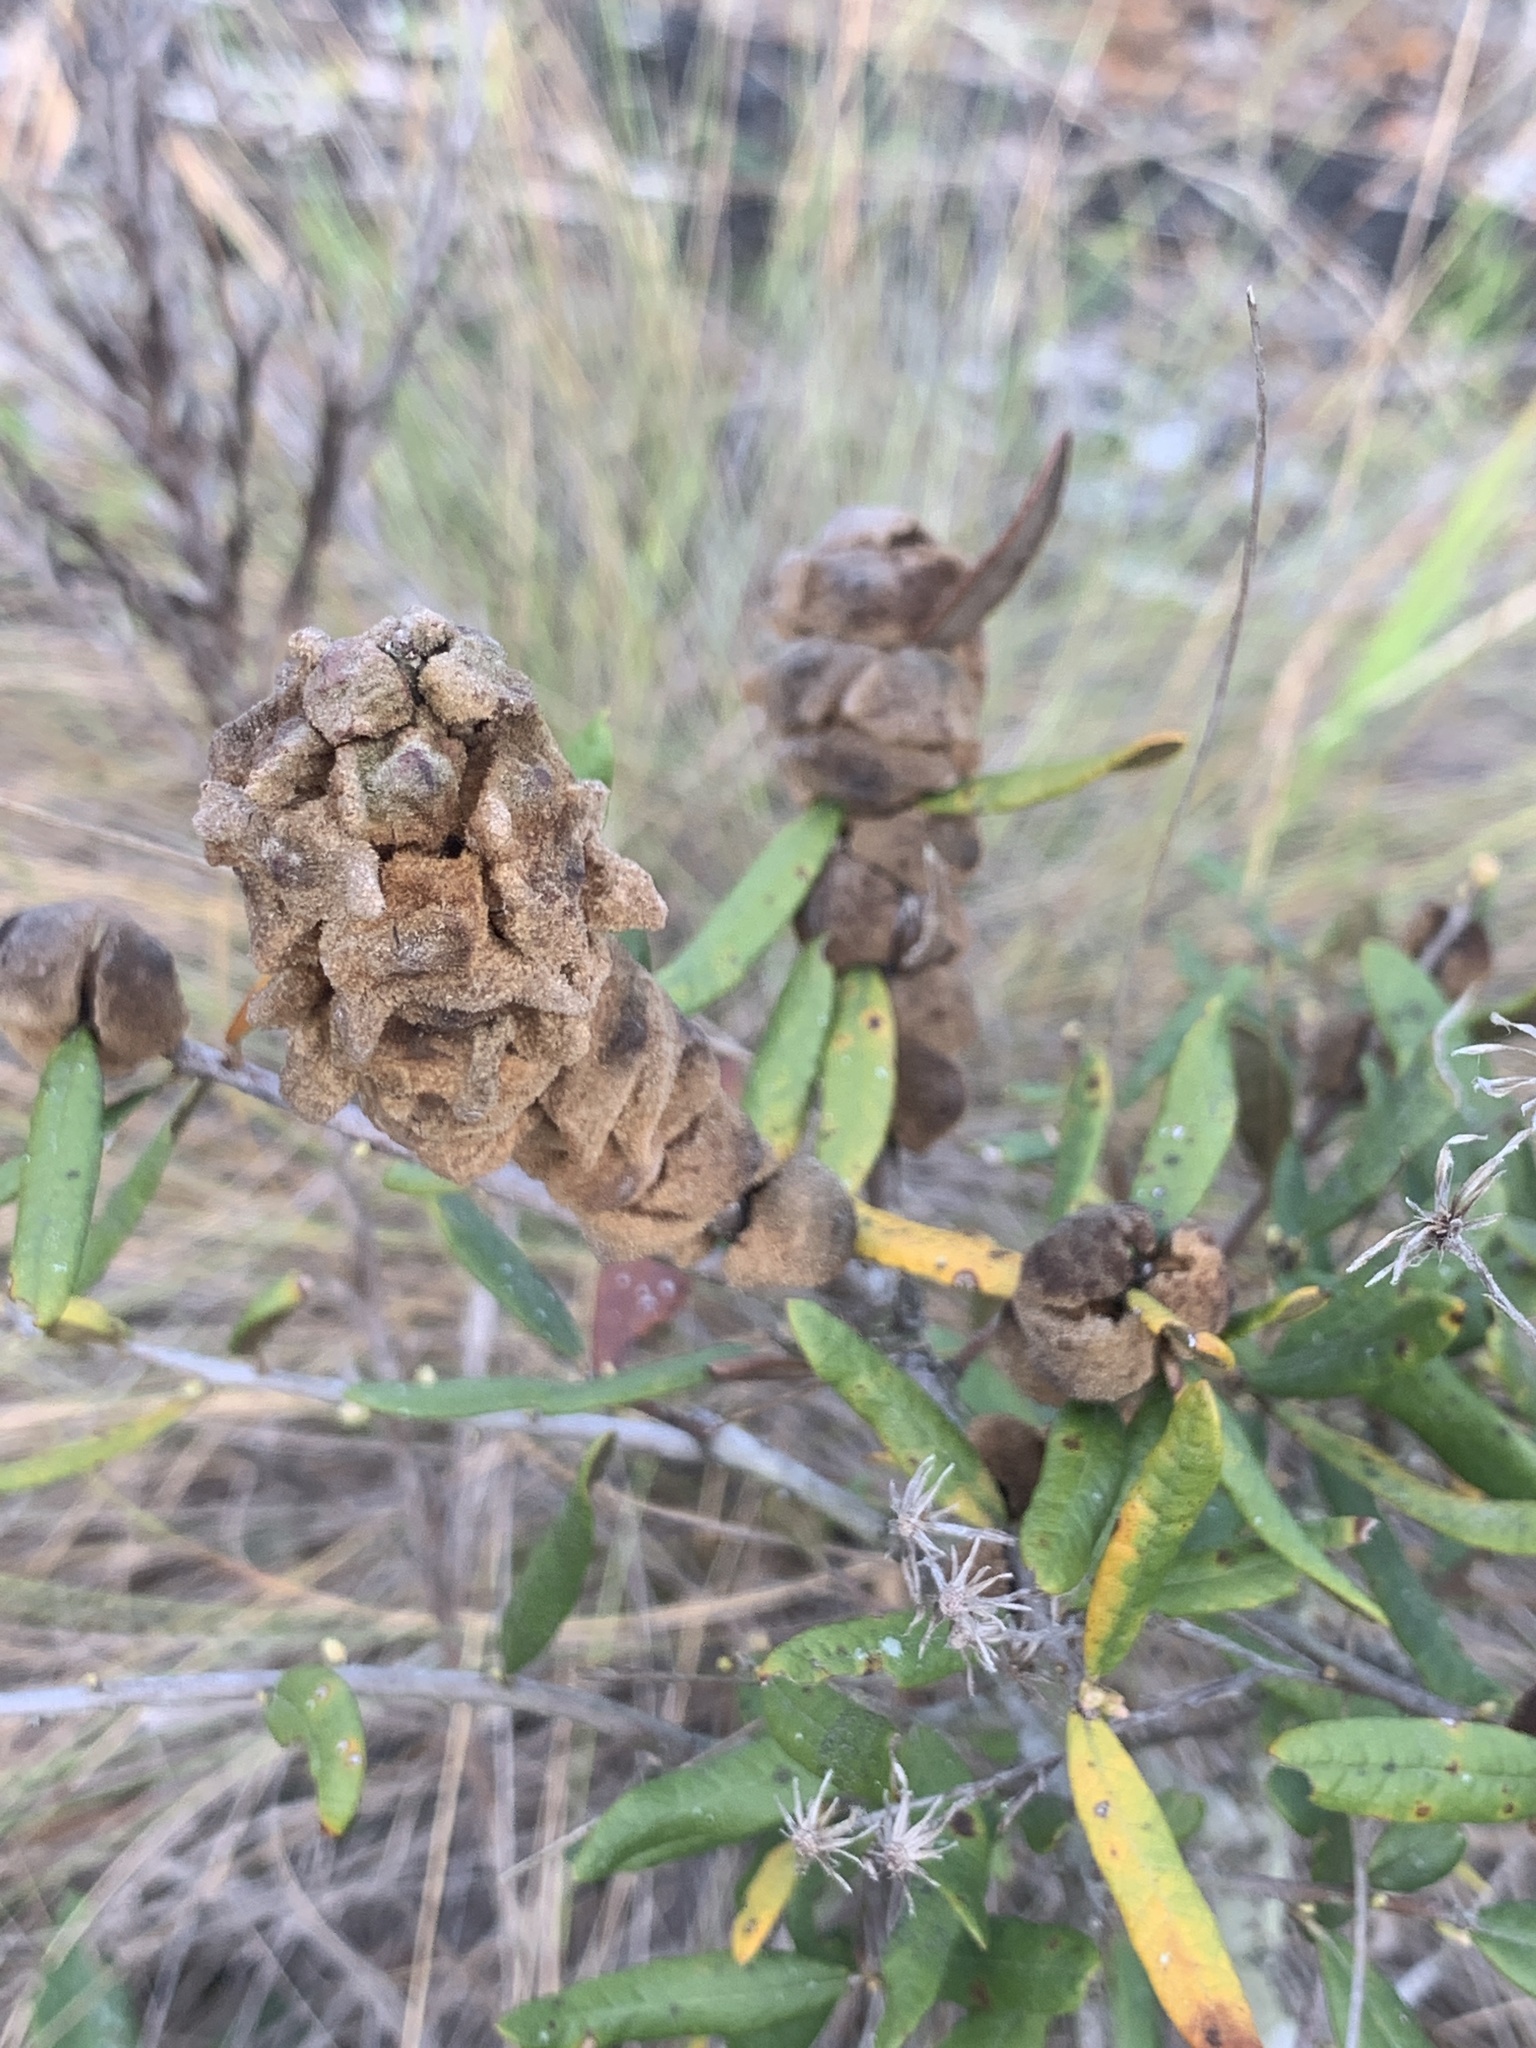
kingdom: Animalia
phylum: Arthropoda
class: Insecta
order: Hymenoptera
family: Cynipidae
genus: Disholcaspis
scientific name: Disholcaspis
